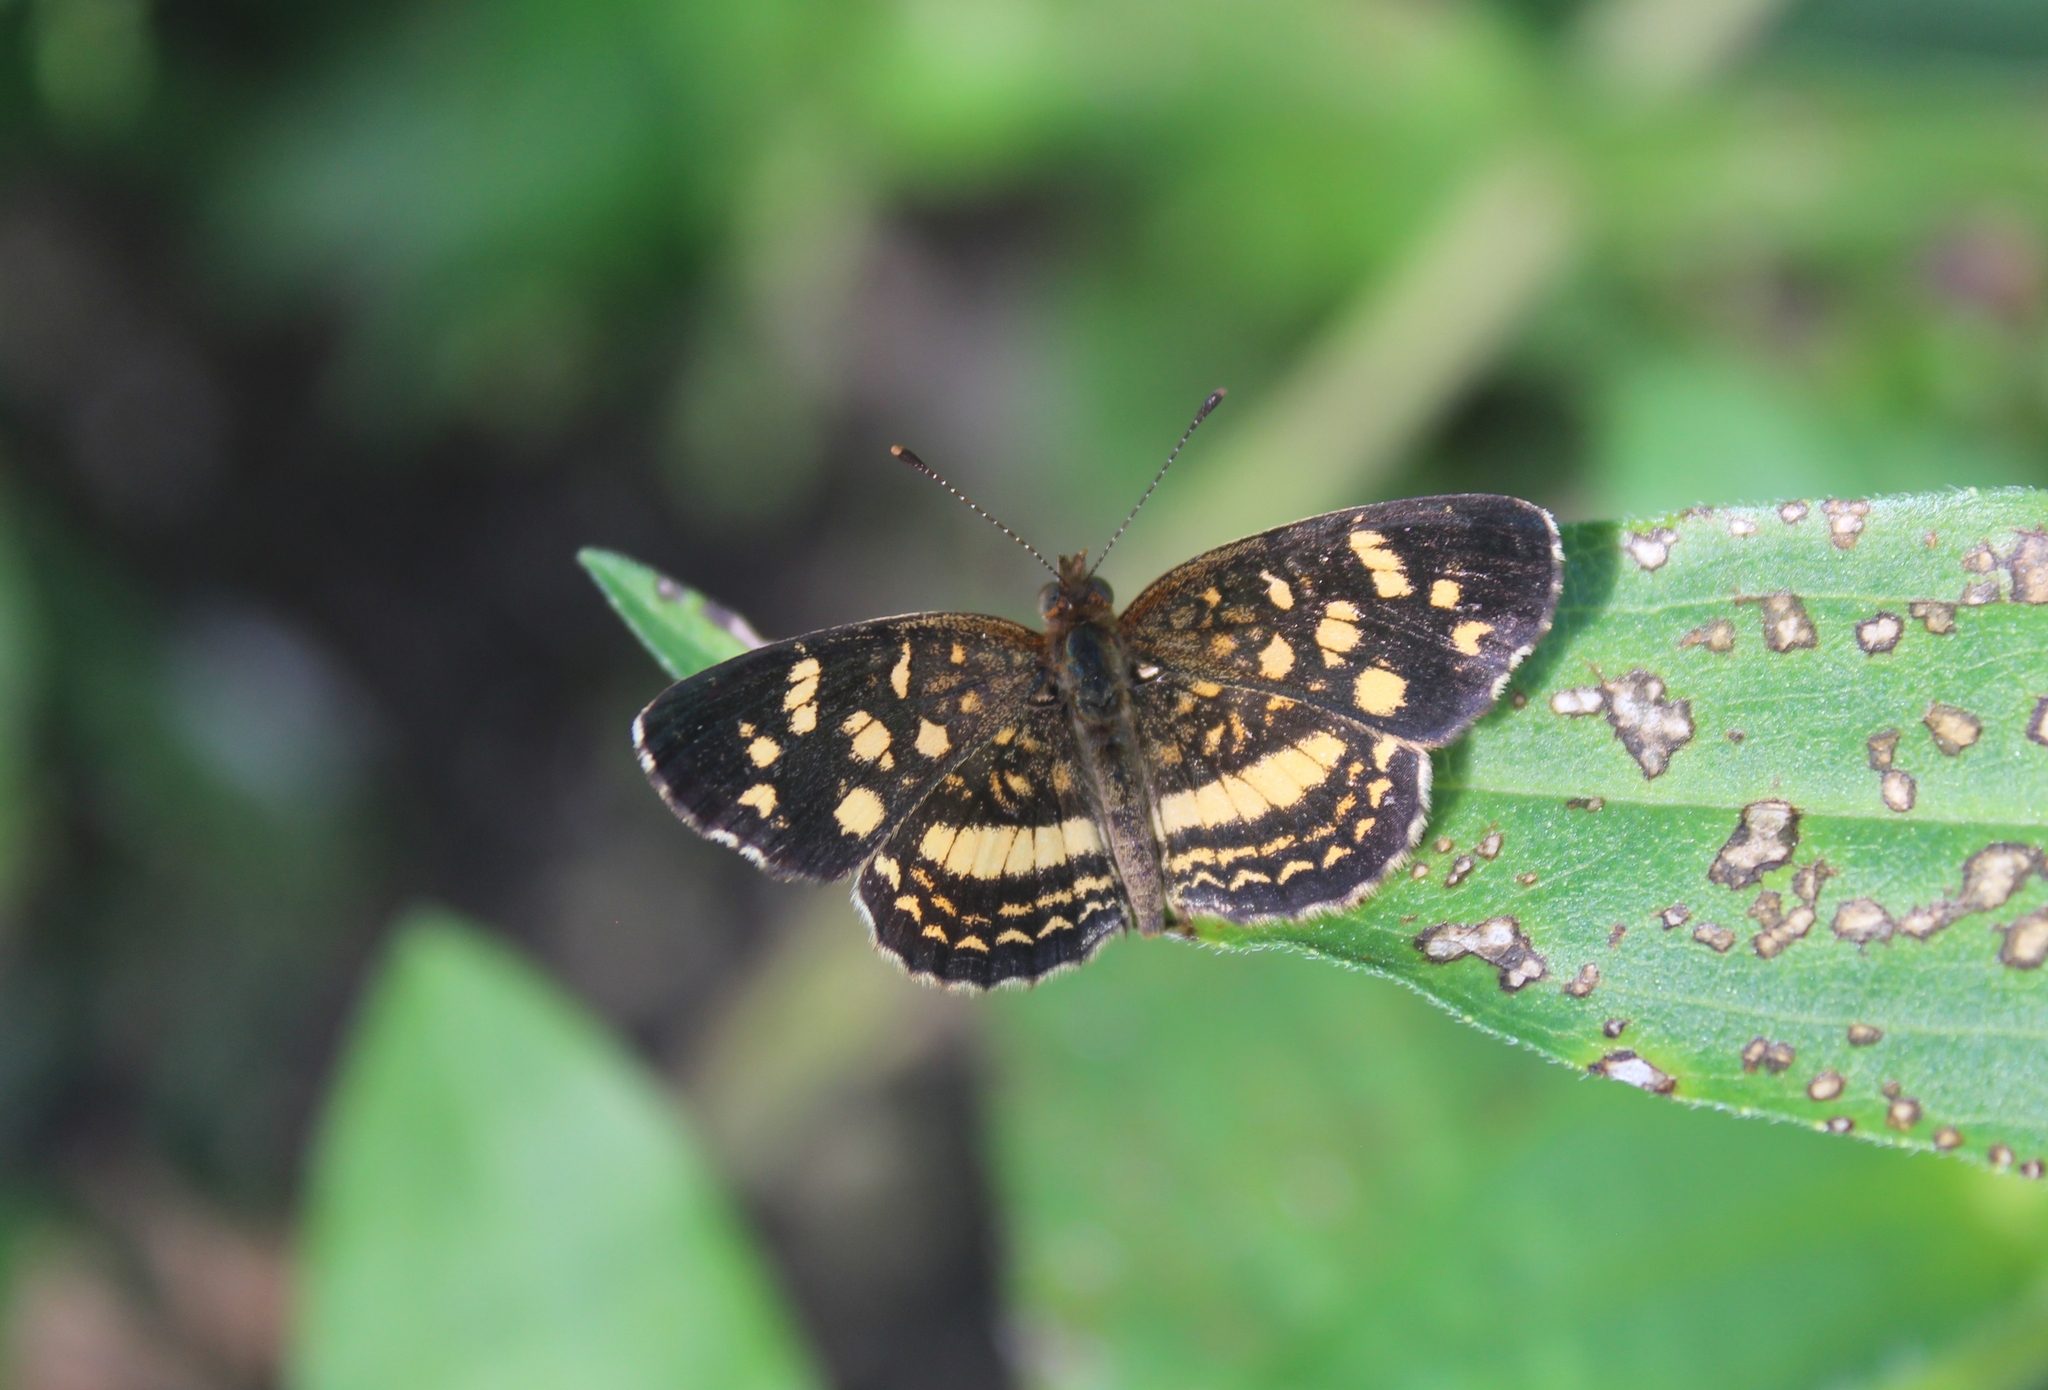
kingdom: Animalia
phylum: Arthropoda
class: Insecta
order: Lepidoptera
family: Nymphalidae
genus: Anthanassa
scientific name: Anthanassa tulcis
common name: Pale-banded crescent
